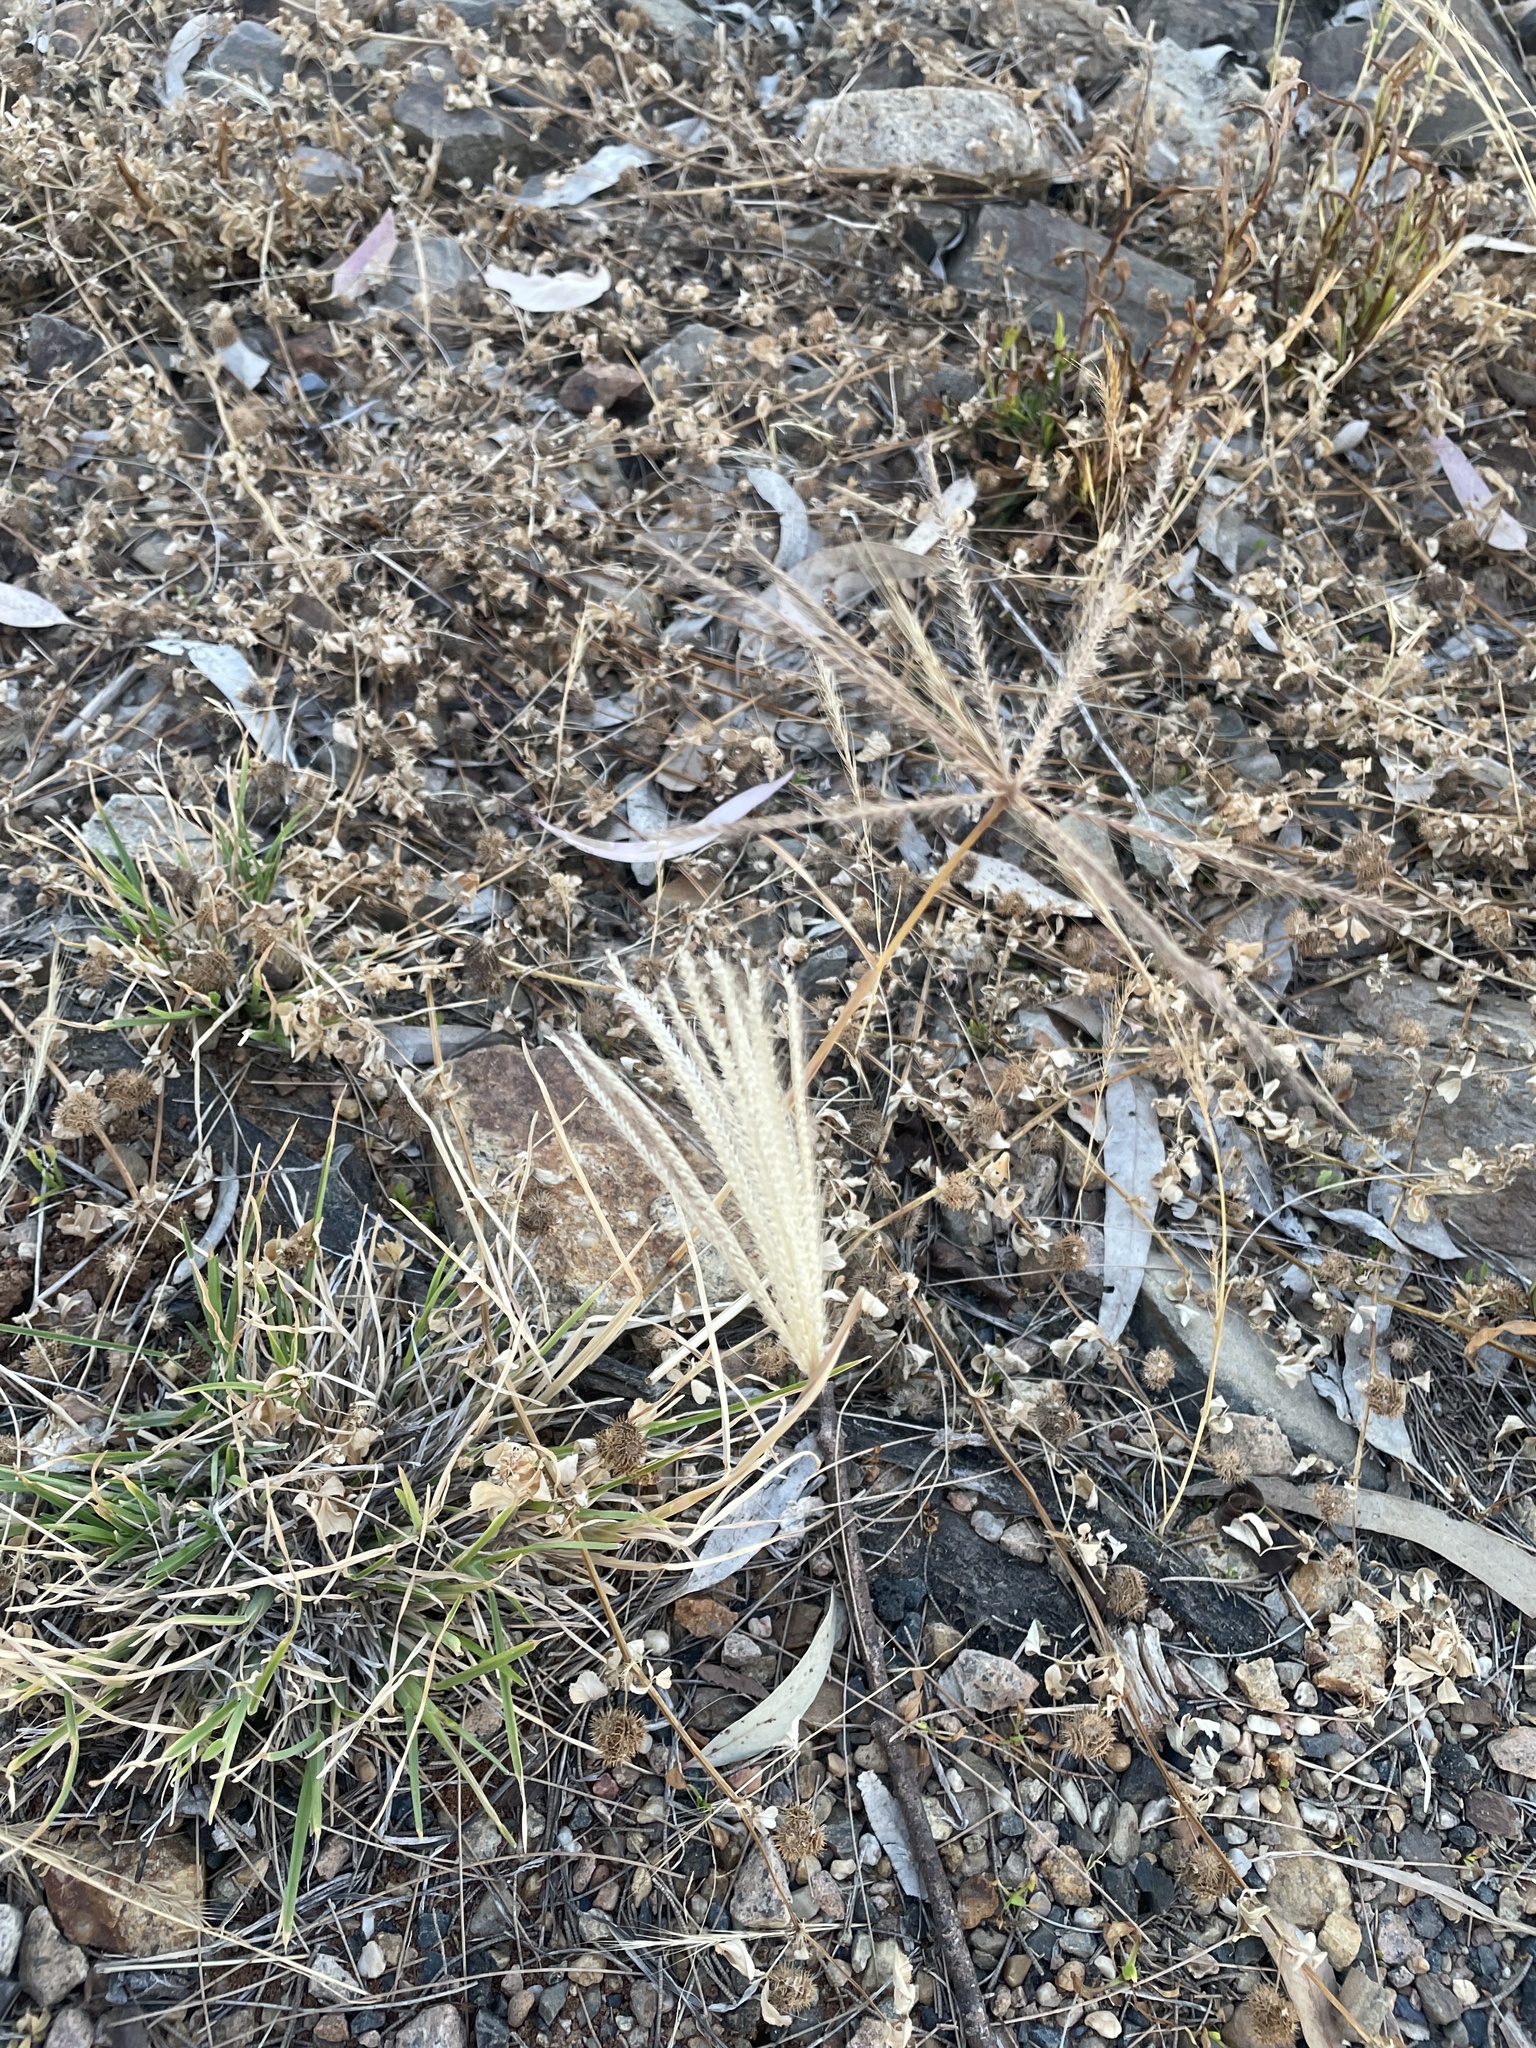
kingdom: Plantae
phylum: Tracheophyta
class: Liliopsida
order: Poales
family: Poaceae
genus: Chloris
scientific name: Chloris truncata
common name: Windmill-grass
